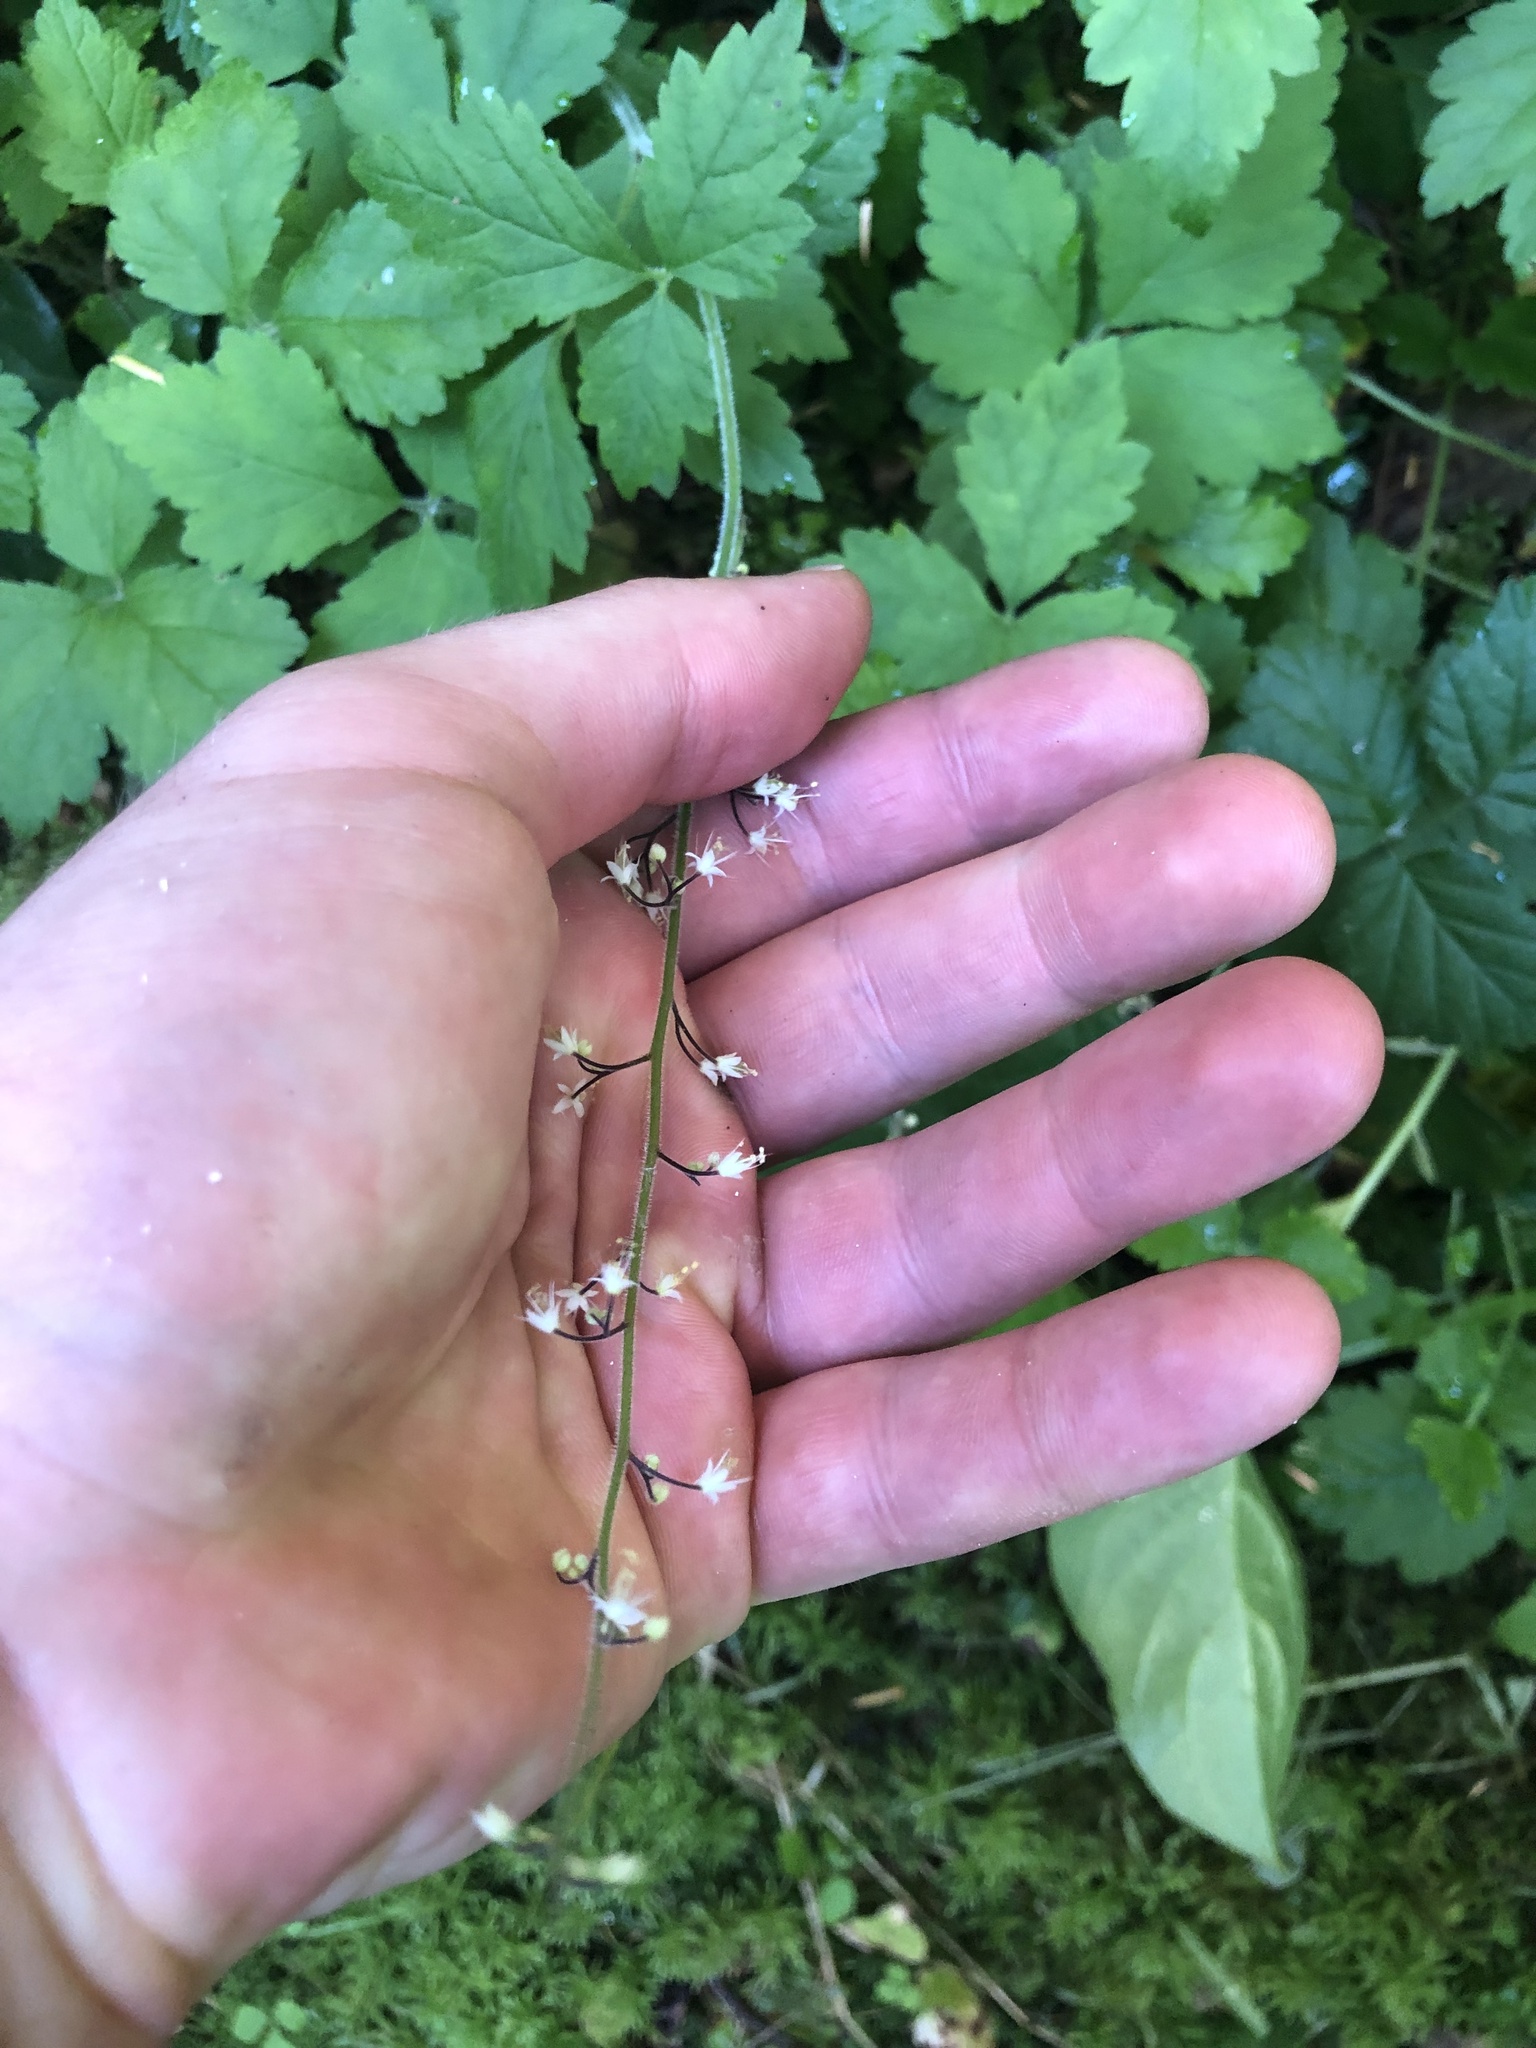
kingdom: Plantae
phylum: Tracheophyta
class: Magnoliopsida
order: Saxifragales
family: Saxifragaceae
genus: Tiarella
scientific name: Tiarella trifoliata
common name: Sugar-scoop
